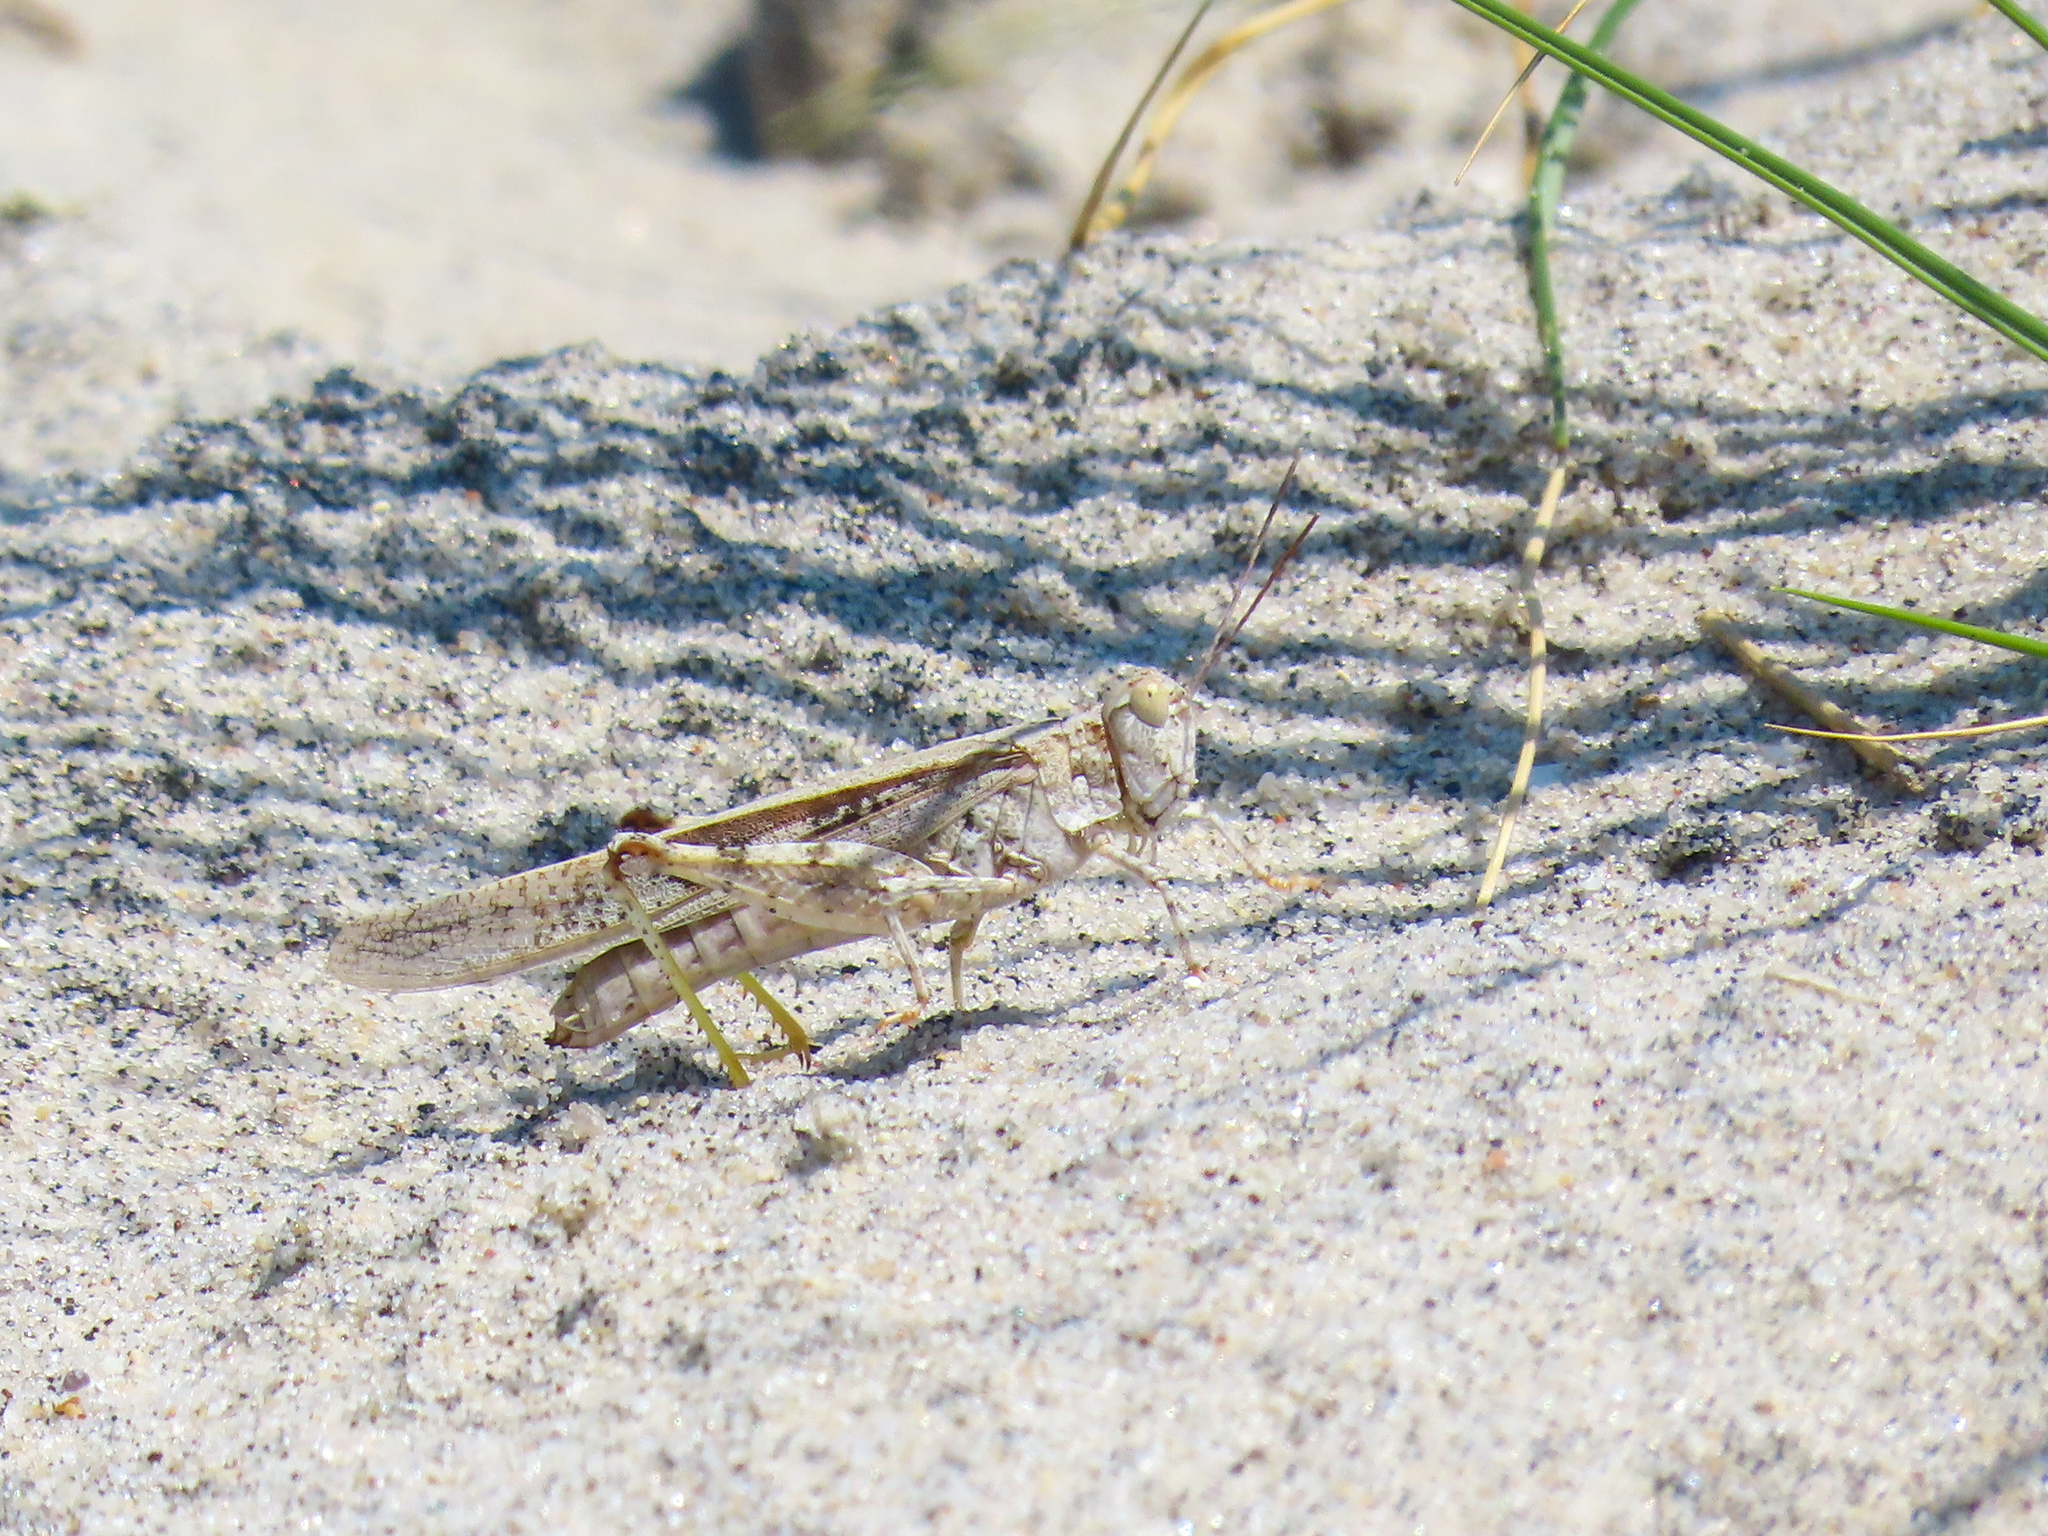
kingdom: Animalia
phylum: Arthropoda
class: Insecta
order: Orthoptera
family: Acrididae
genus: Trimerotropis
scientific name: Trimerotropis maritima
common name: Seaside locust
